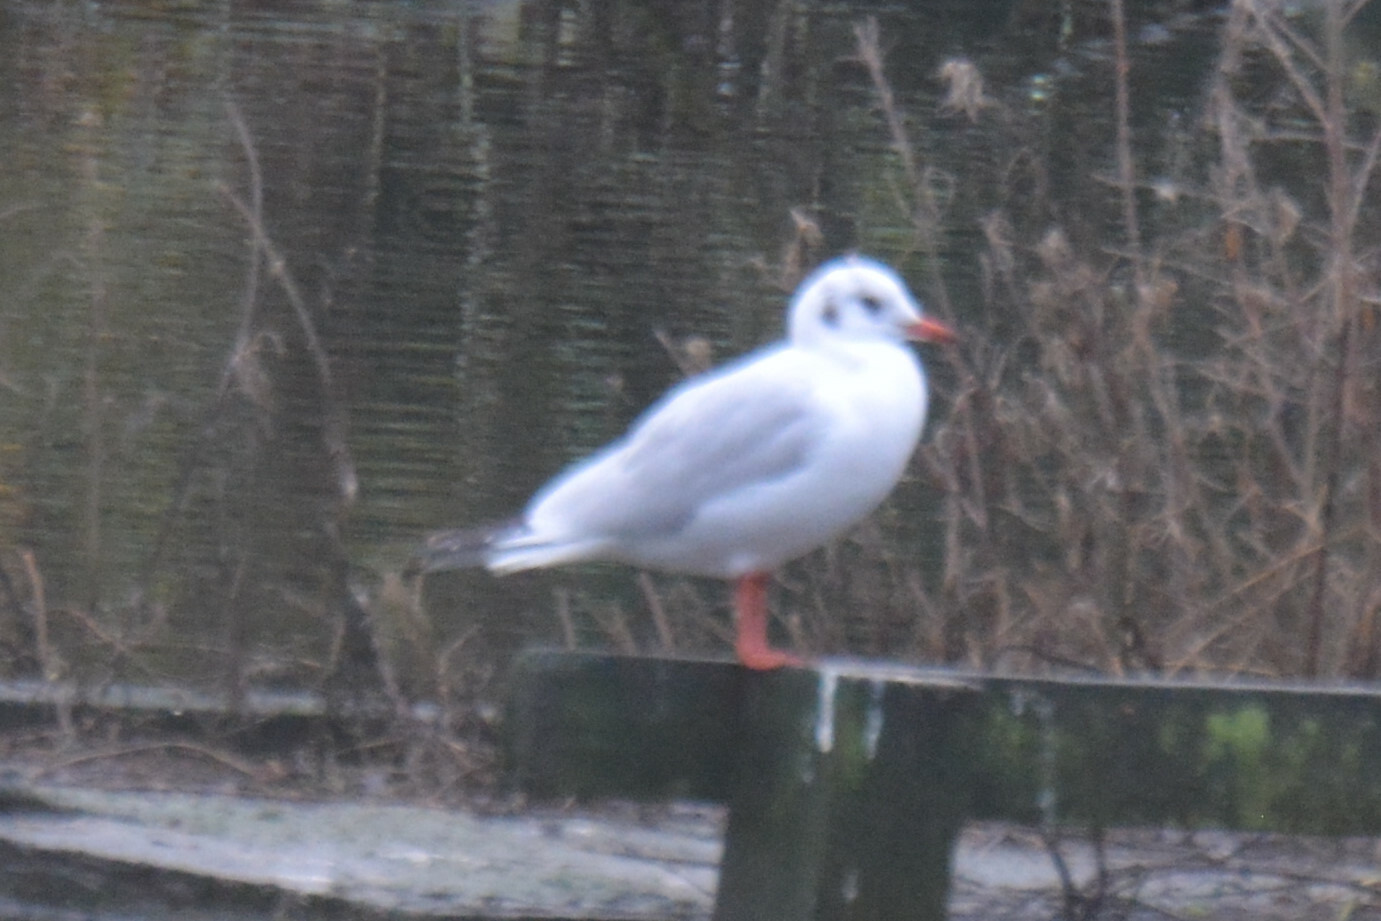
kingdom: Animalia
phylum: Chordata
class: Aves
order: Charadriiformes
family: Laridae
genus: Chroicocephalus
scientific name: Chroicocephalus ridibundus
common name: Black-headed gull
